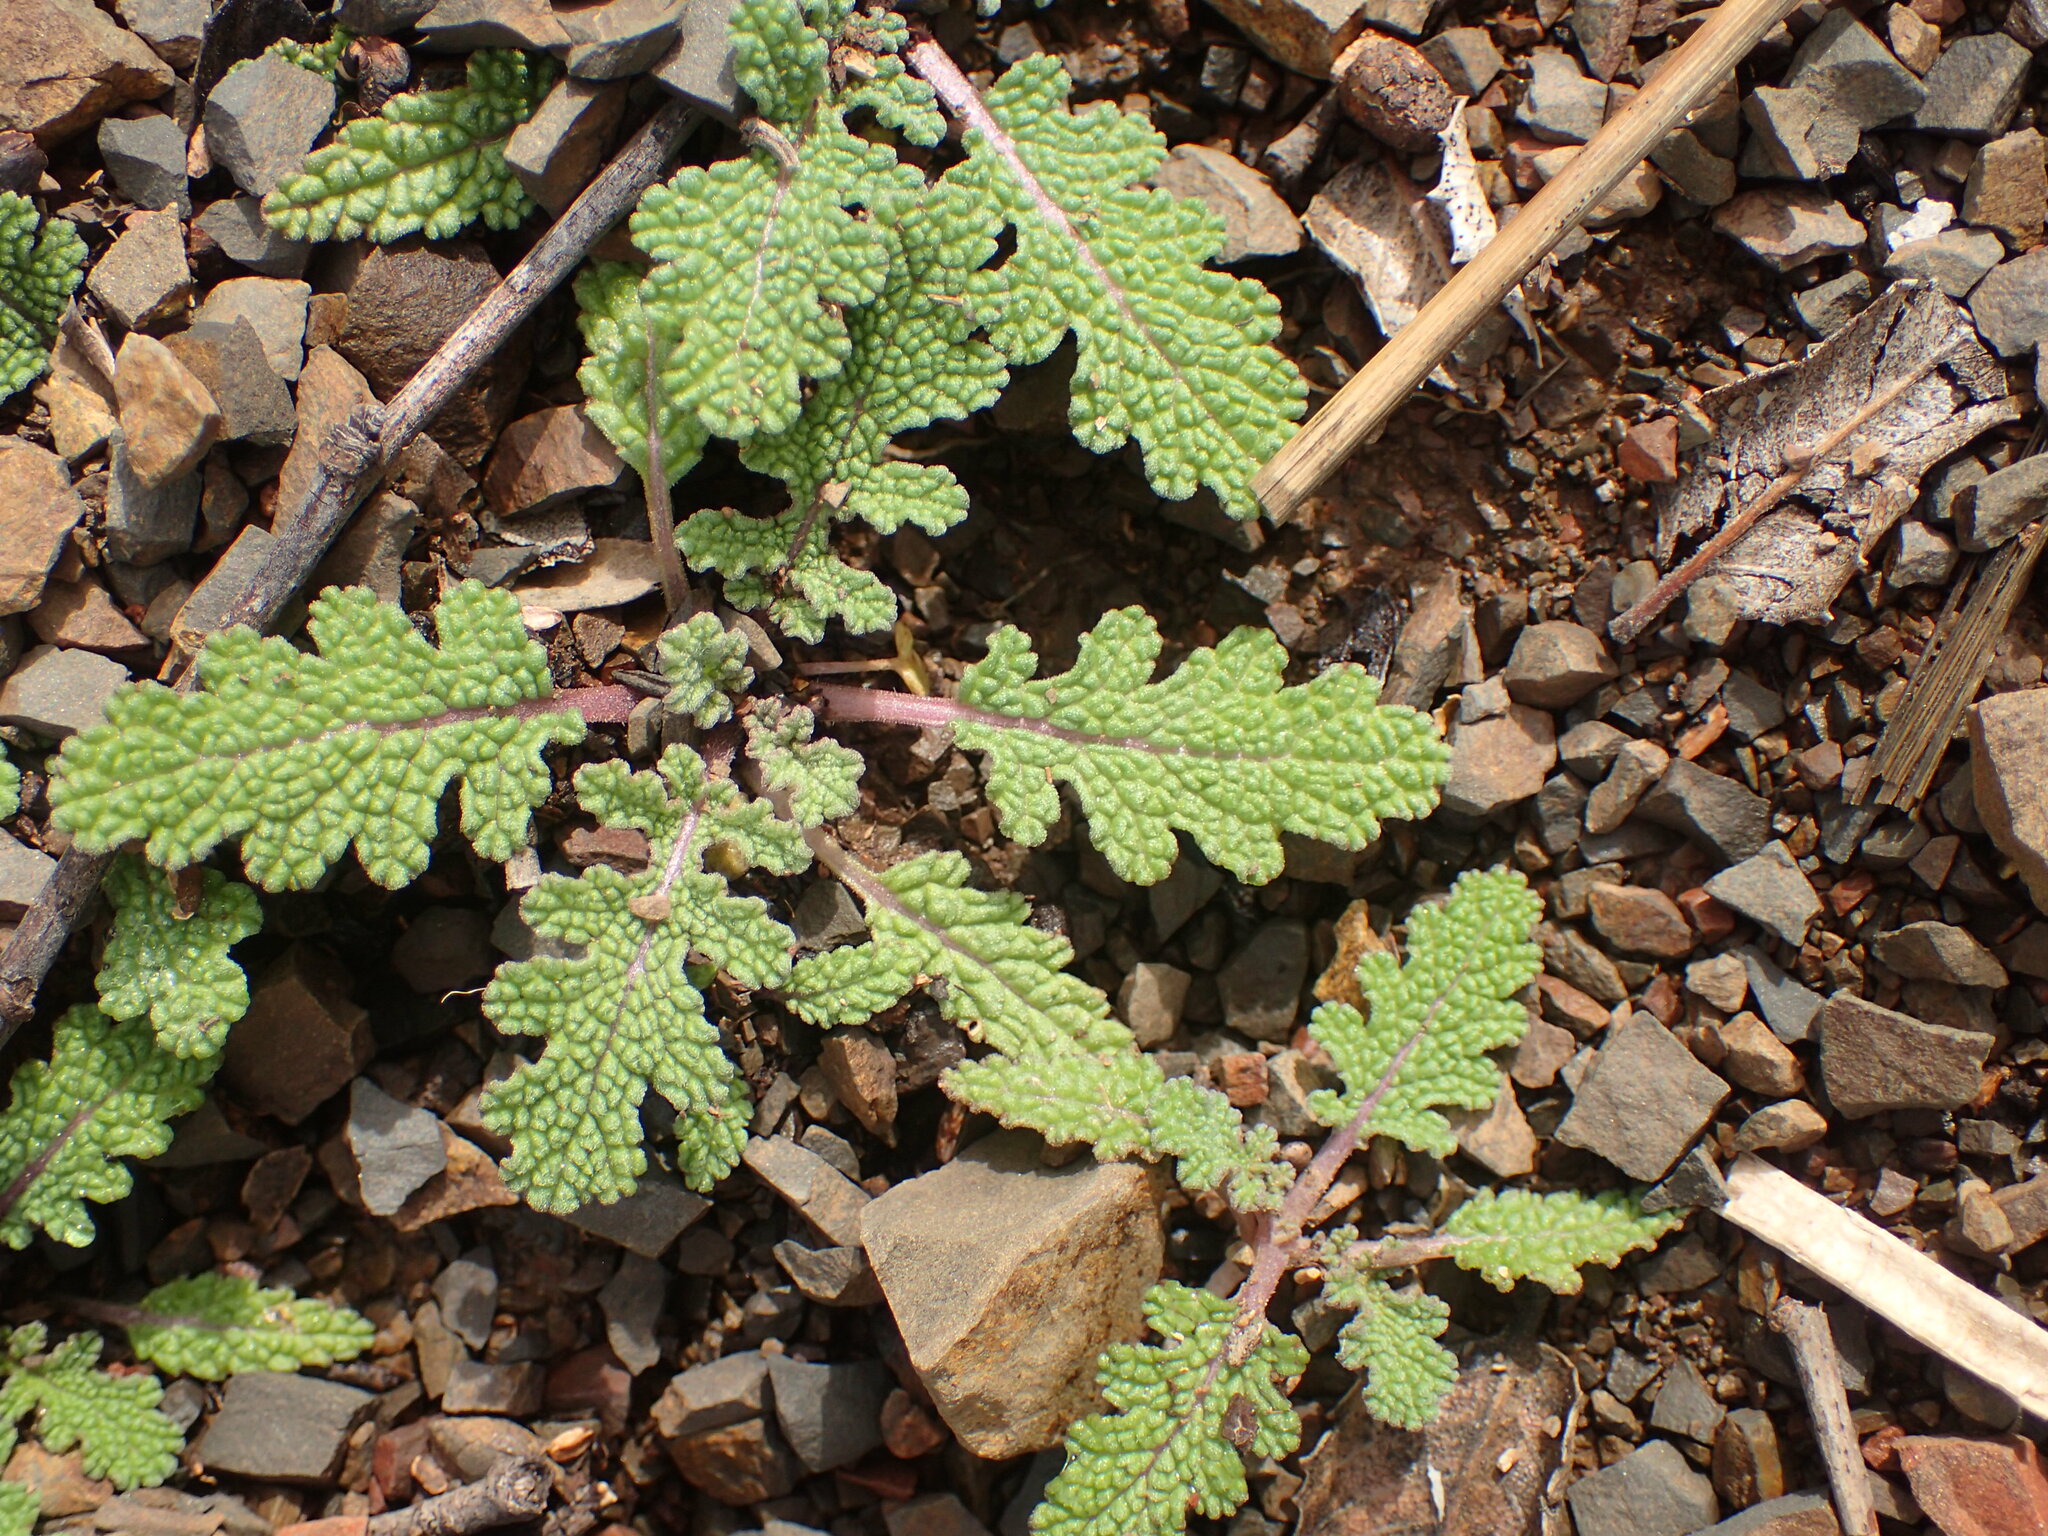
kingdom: Plantae
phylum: Tracheophyta
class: Magnoliopsida
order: Lamiales
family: Lamiaceae
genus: Salvia
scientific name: Salvia columbariae
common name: Chia
